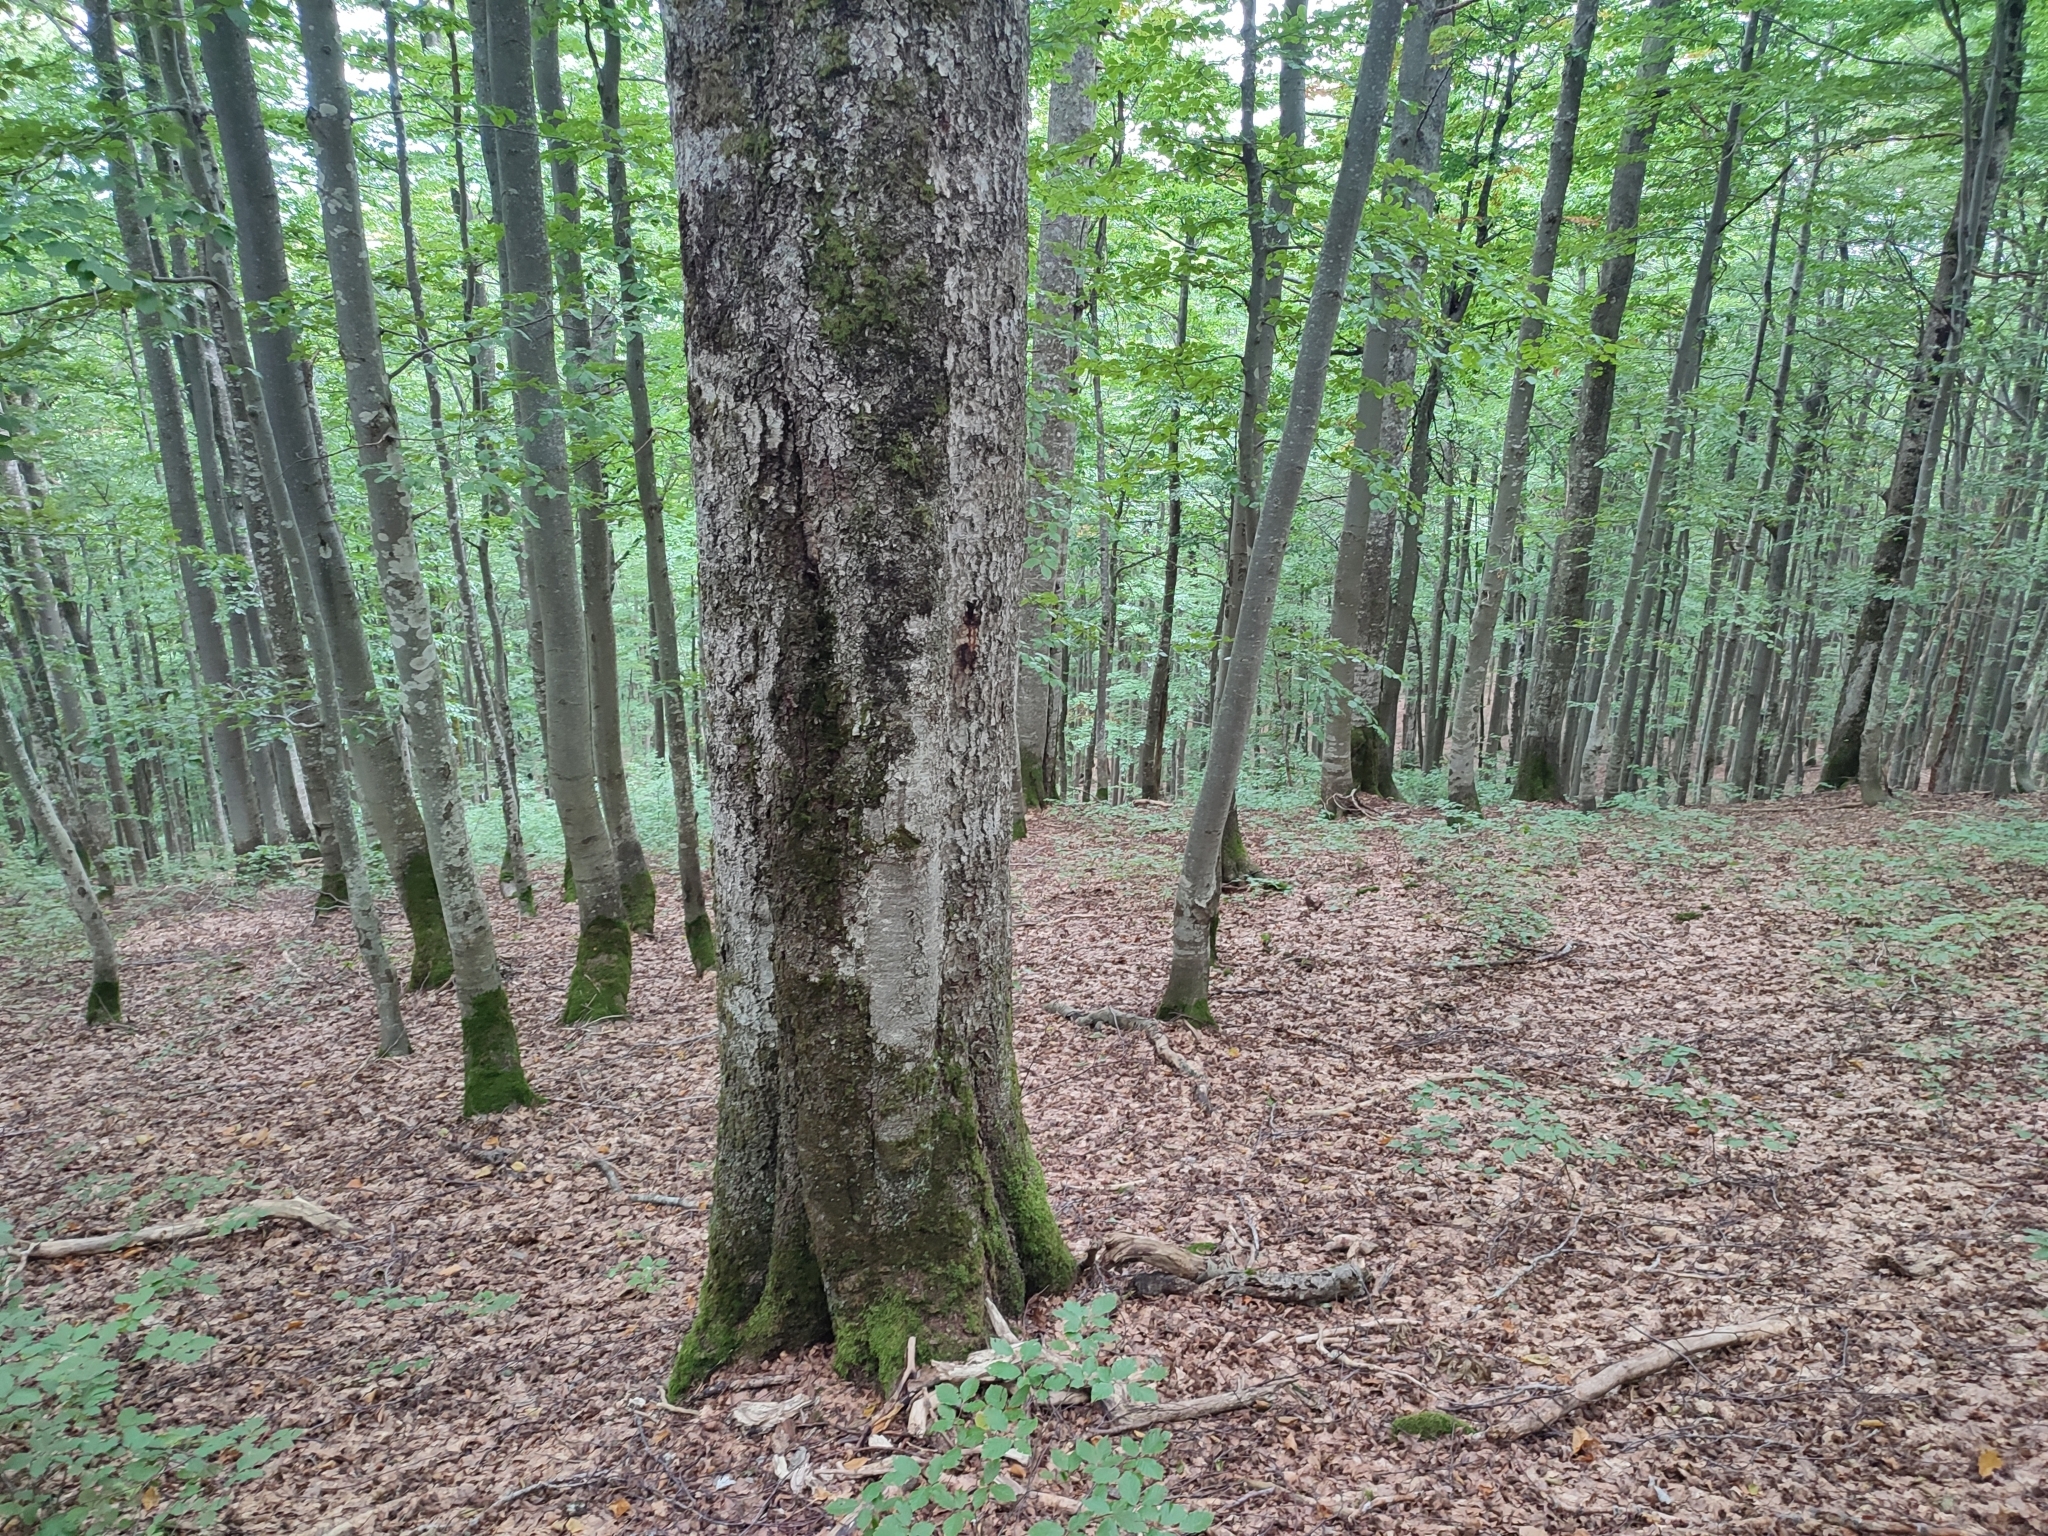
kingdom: Plantae
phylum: Tracheophyta
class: Magnoliopsida
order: Fagales
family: Fagaceae
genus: Fagus
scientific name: Fagus sylvatica
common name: Beech
